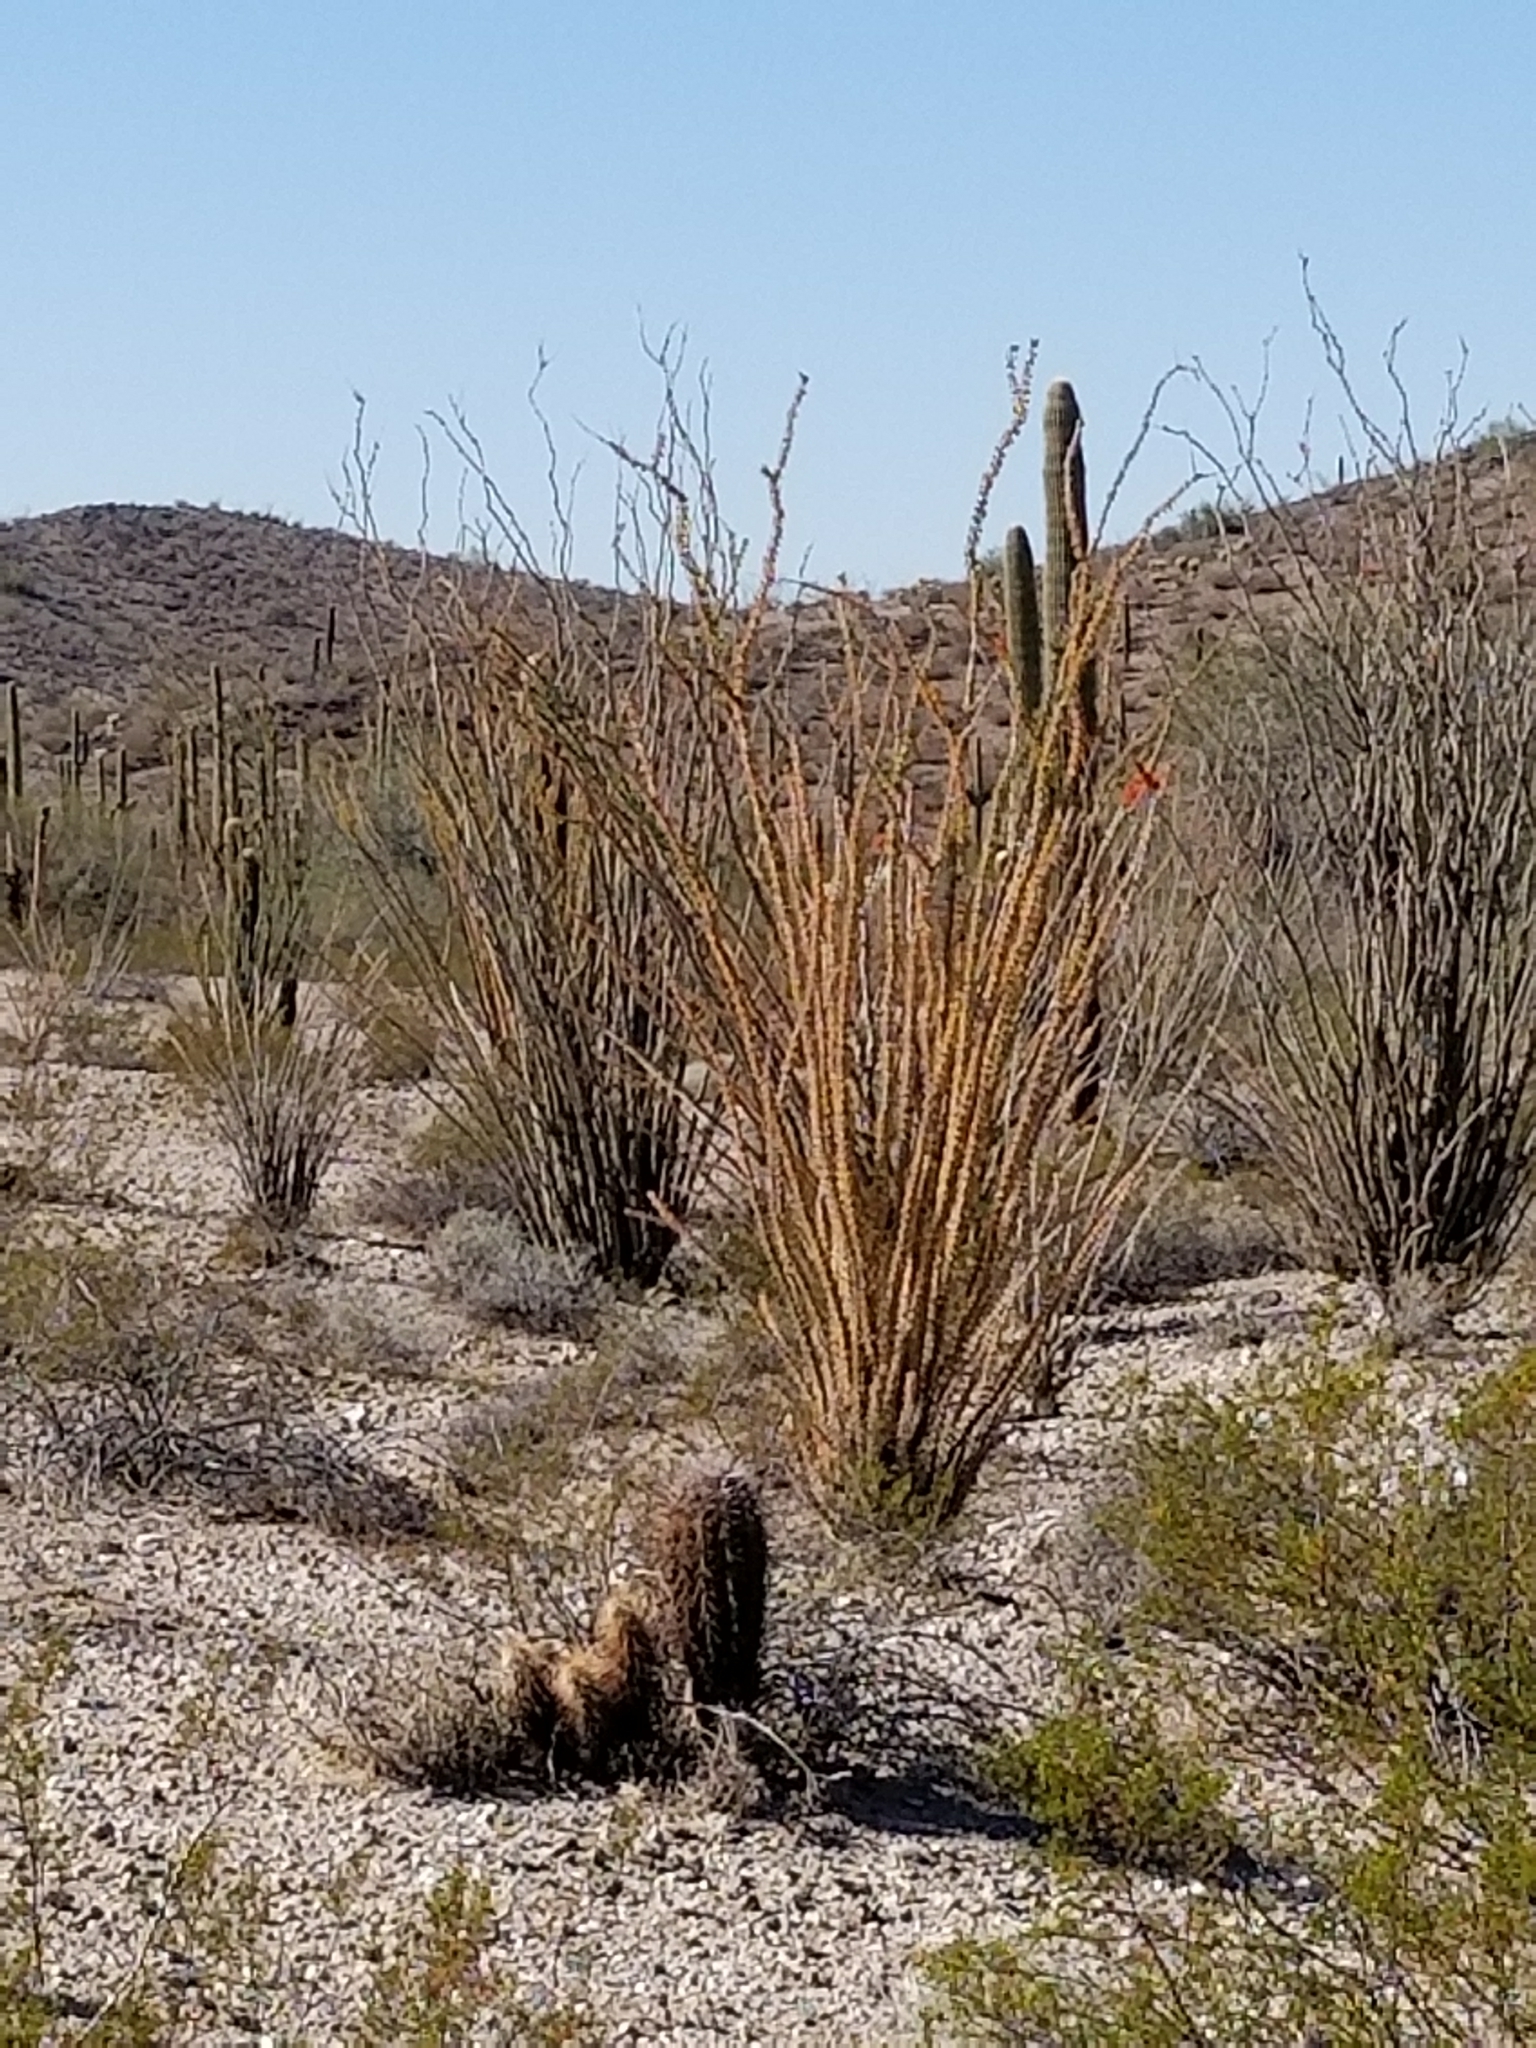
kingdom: Plantae
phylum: Tracheophyta
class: Magnoliopsida
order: Ericales
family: Fouquieriaceae
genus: Fouquieria
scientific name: Fouquieria splendens
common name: Vine-cactus
